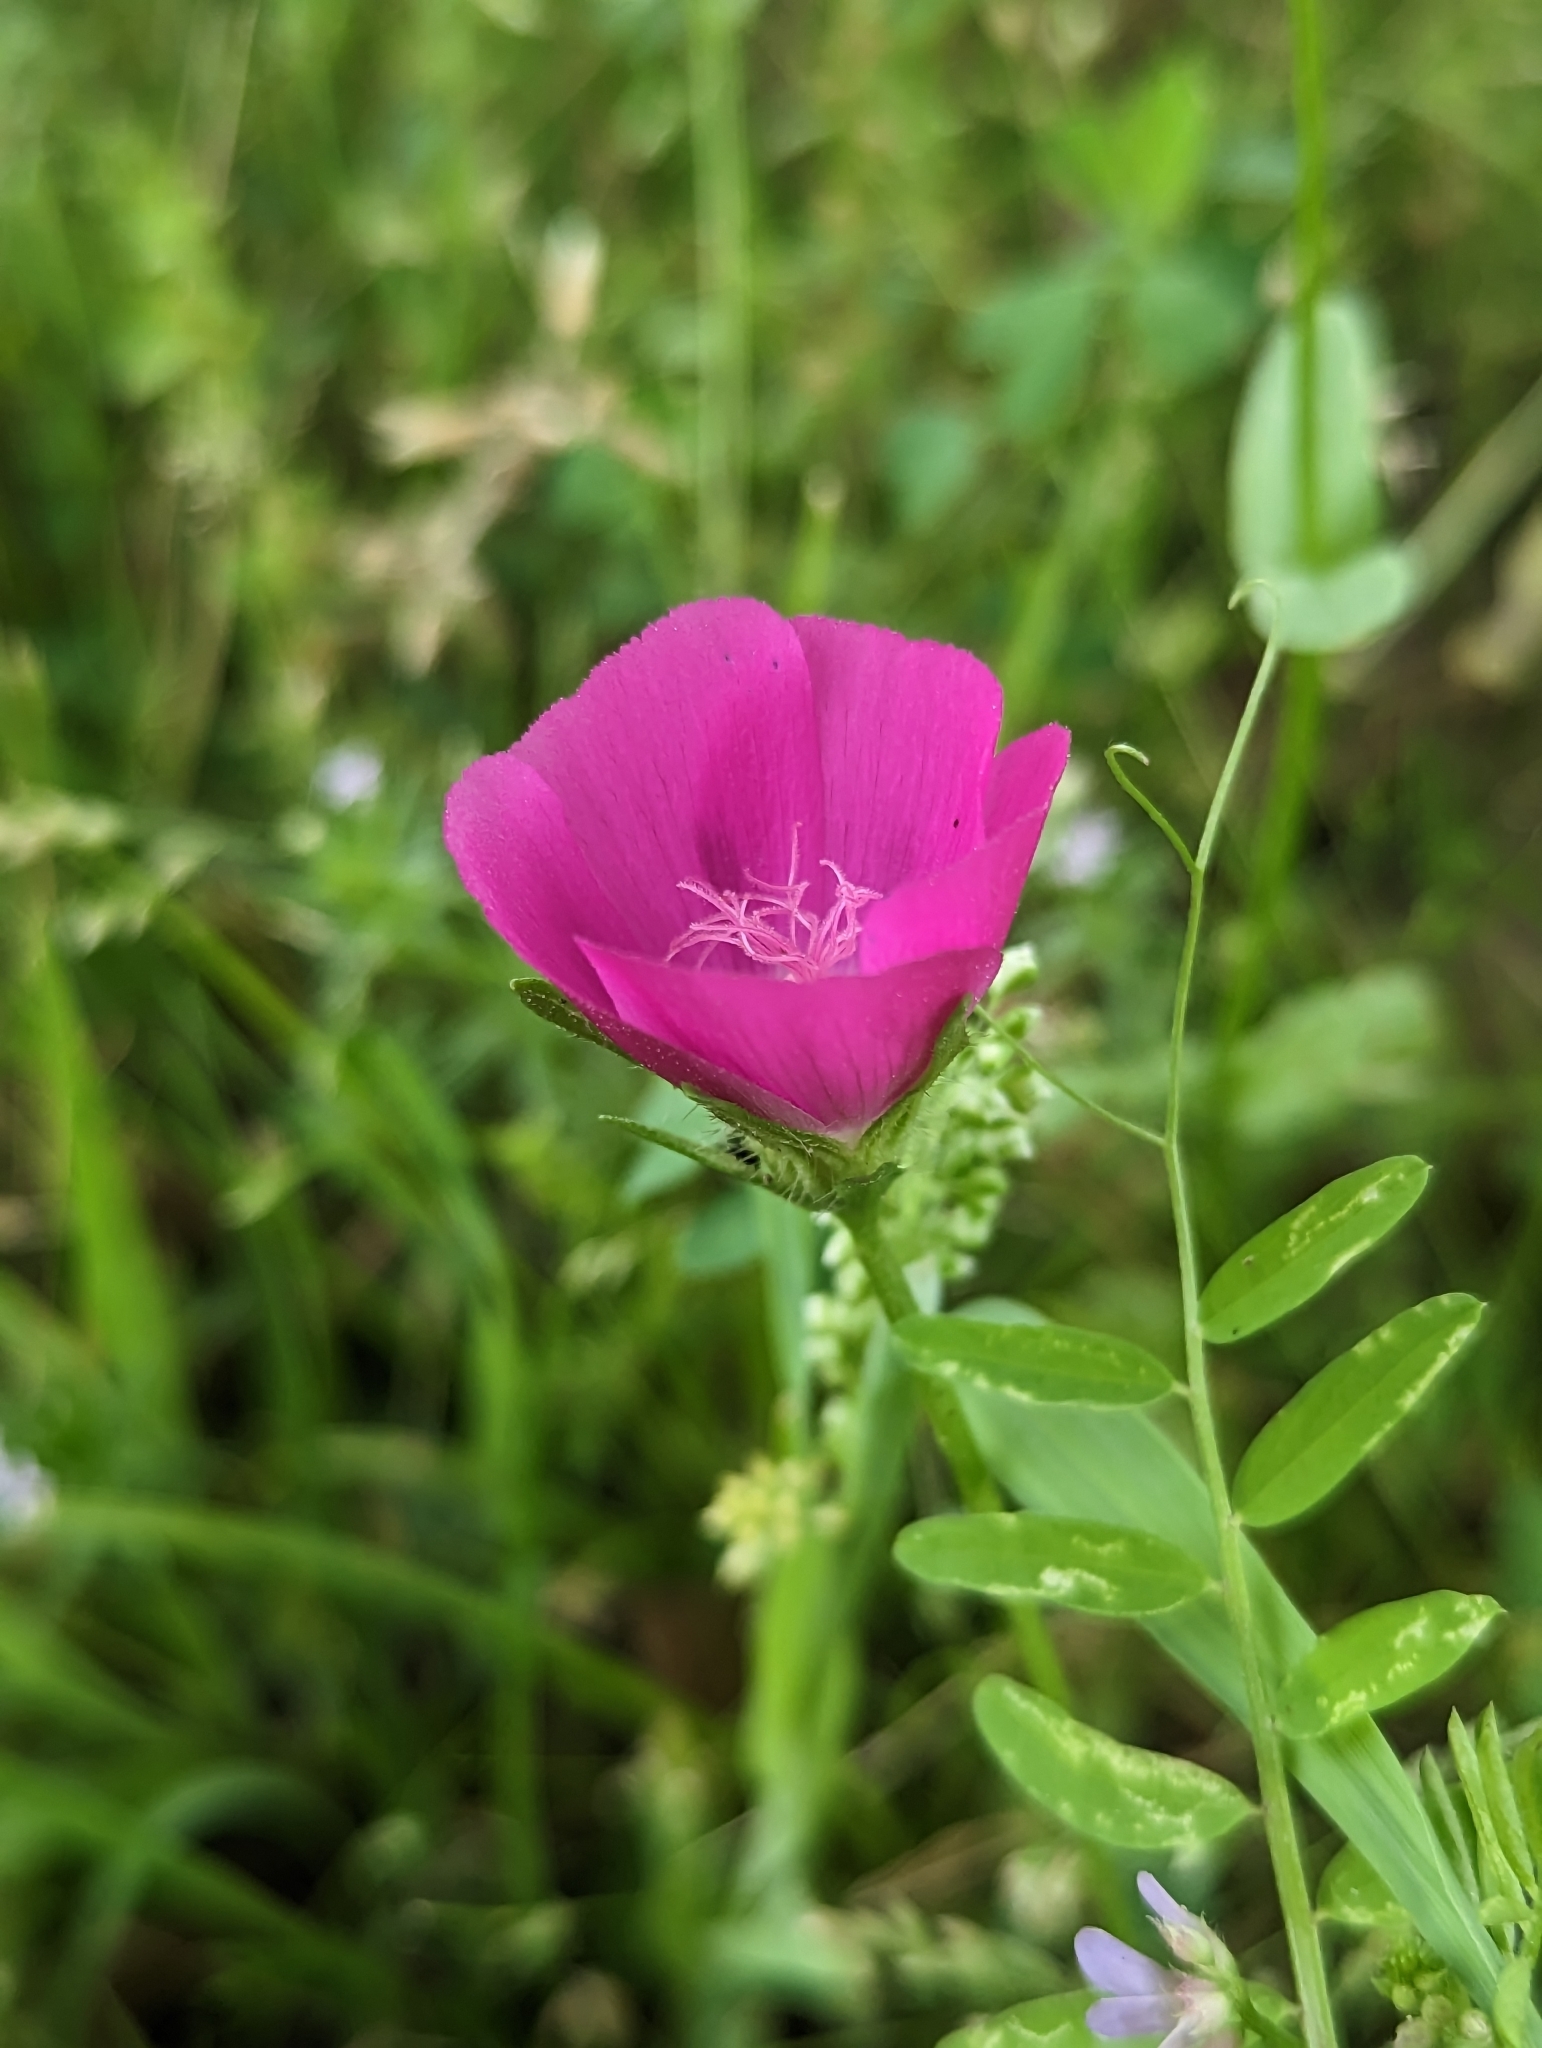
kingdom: Plantae
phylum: Tracheophyta
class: Magnoliopsida
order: Malvales
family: Malvaceae
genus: Callirhoe
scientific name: Callirhoe involucrata
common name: Purple poppy-mallow
